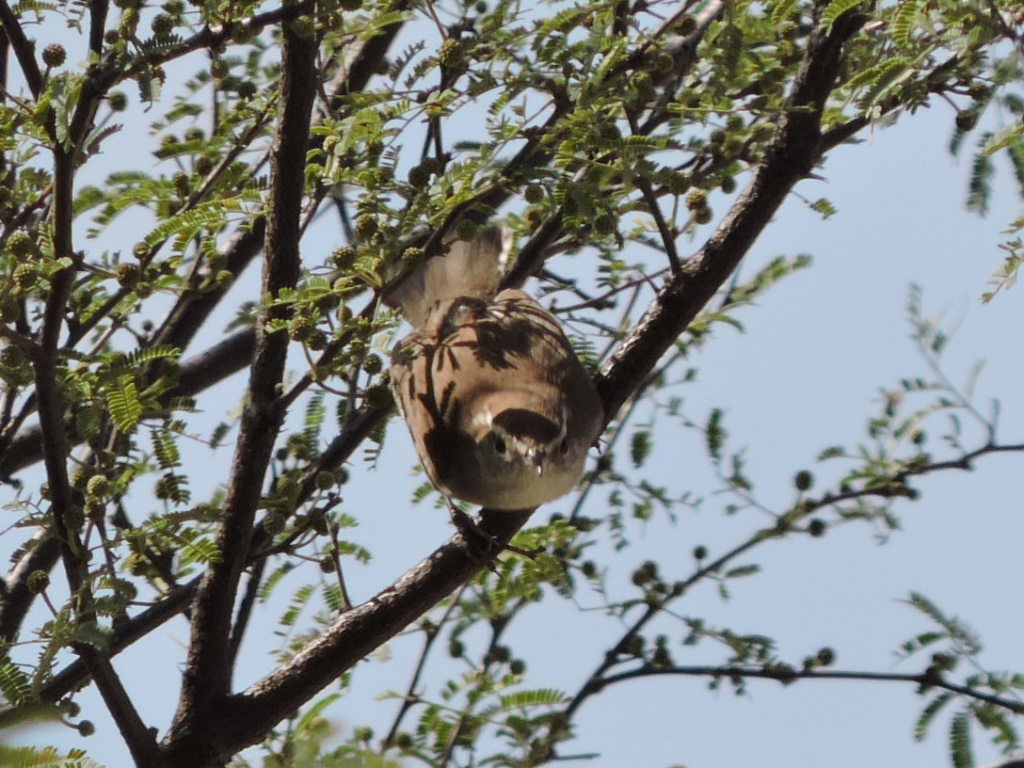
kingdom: Animalia
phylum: Chordata
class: Aves
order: Passeriformes
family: Troglodytidae
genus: Thryomanes
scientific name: Thryomanes bewickii
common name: Bewick's wren
